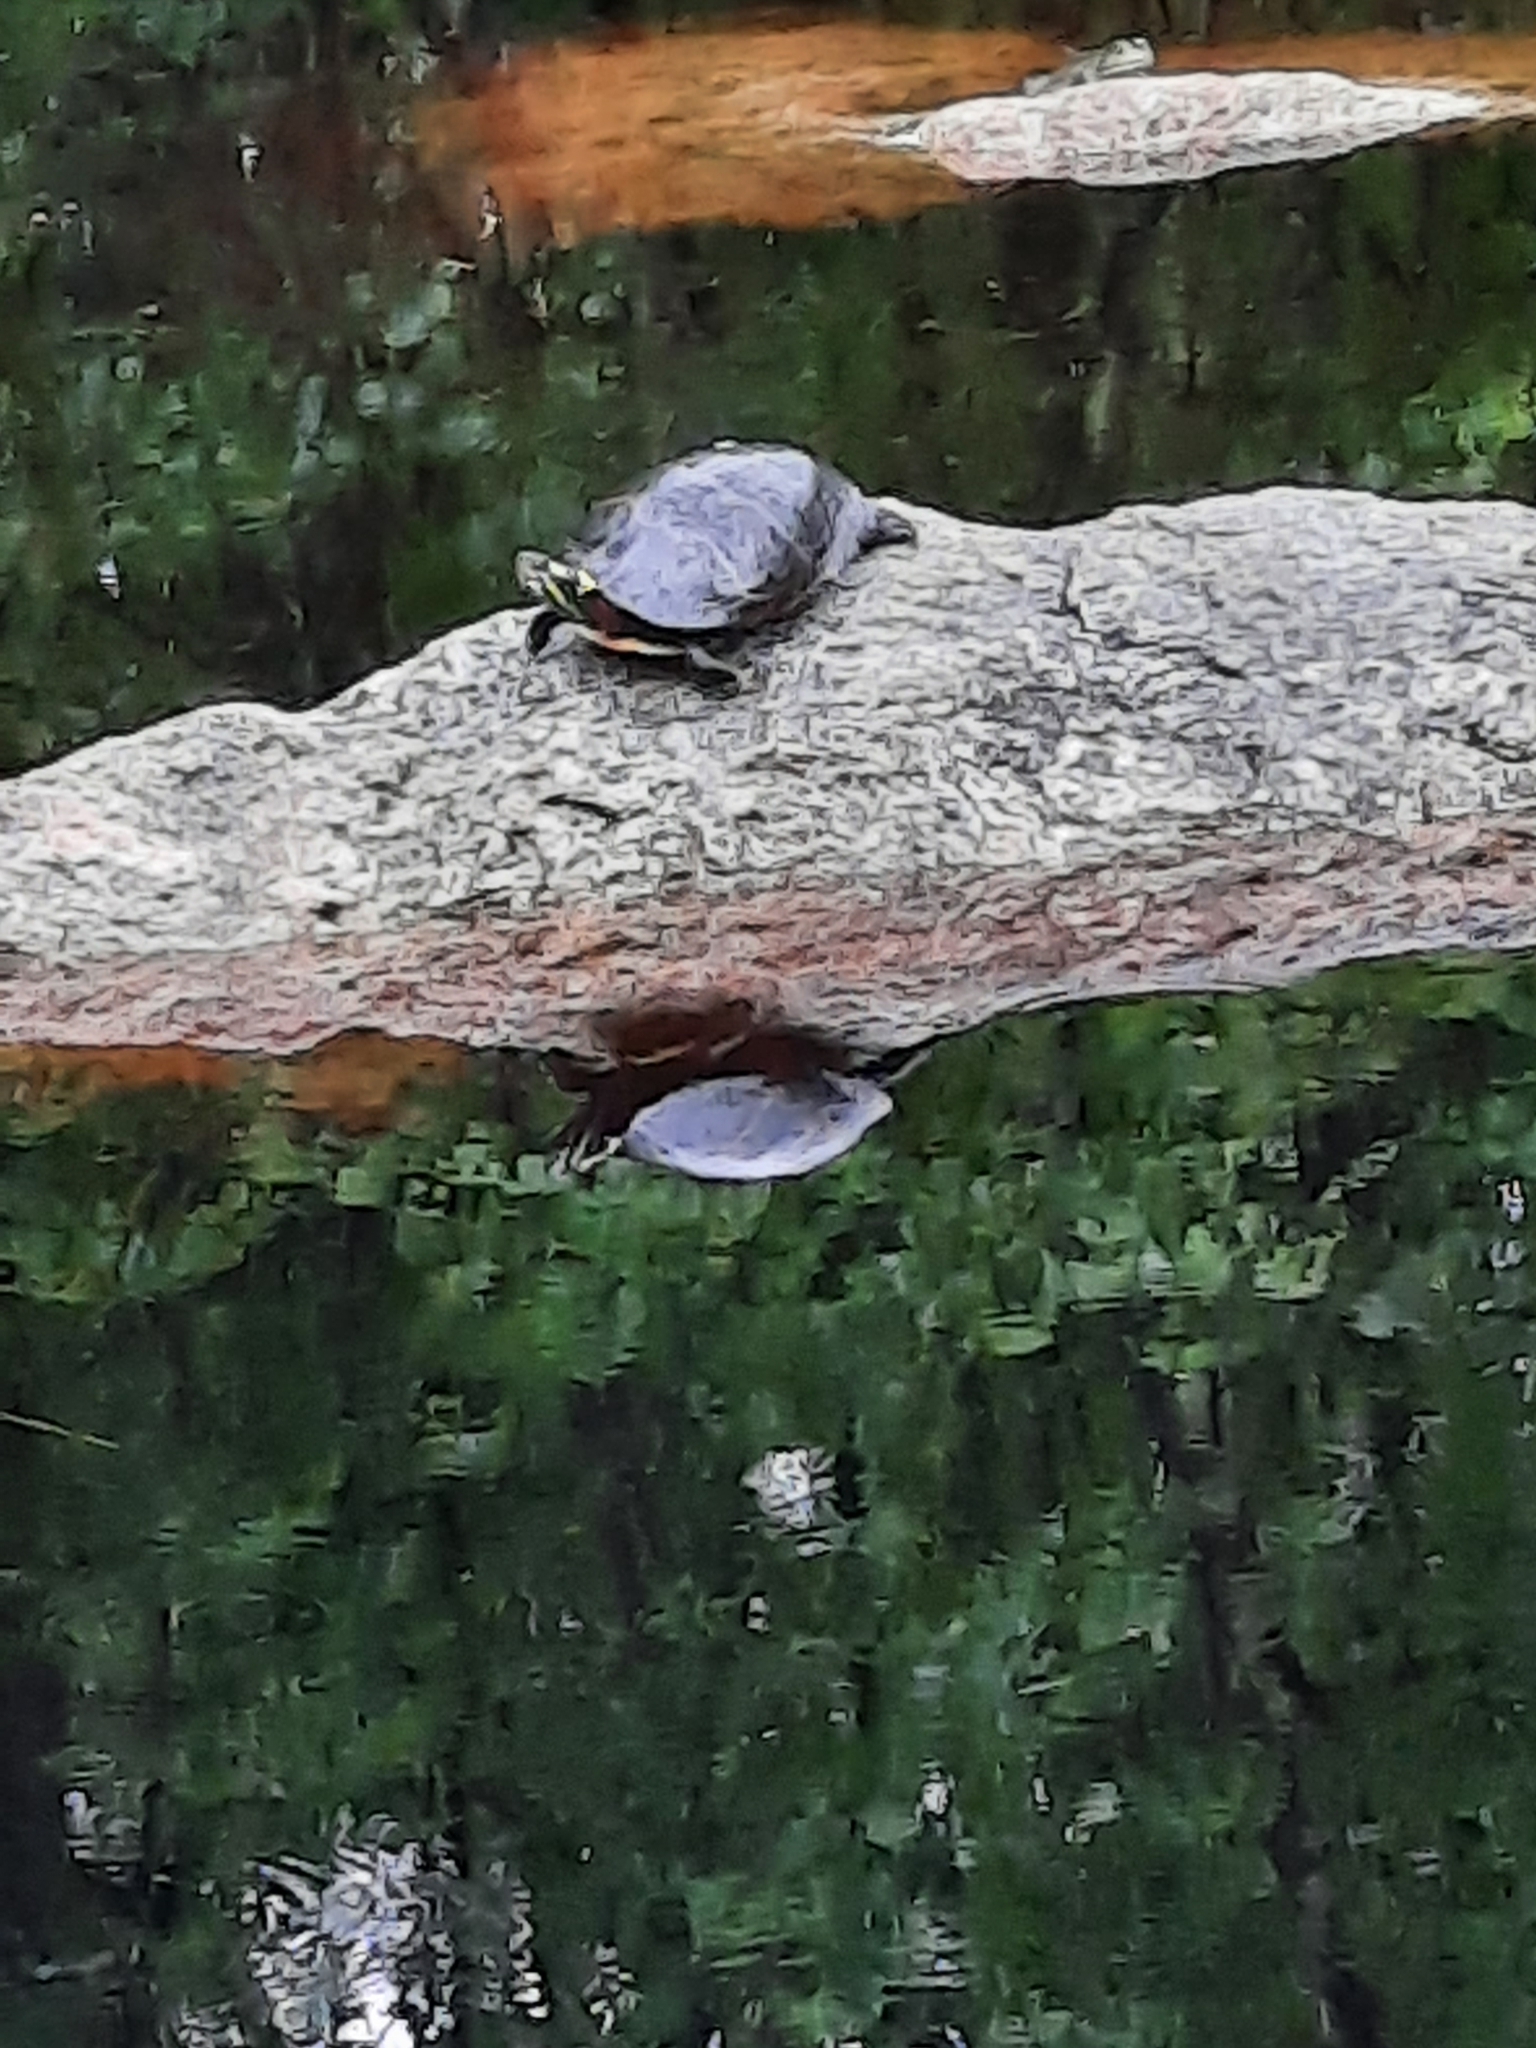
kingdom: Animalia
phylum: Chordata
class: Testudines
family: Emydidae
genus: Chrysemys
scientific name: Chrysemys picta
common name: Painted turtle
